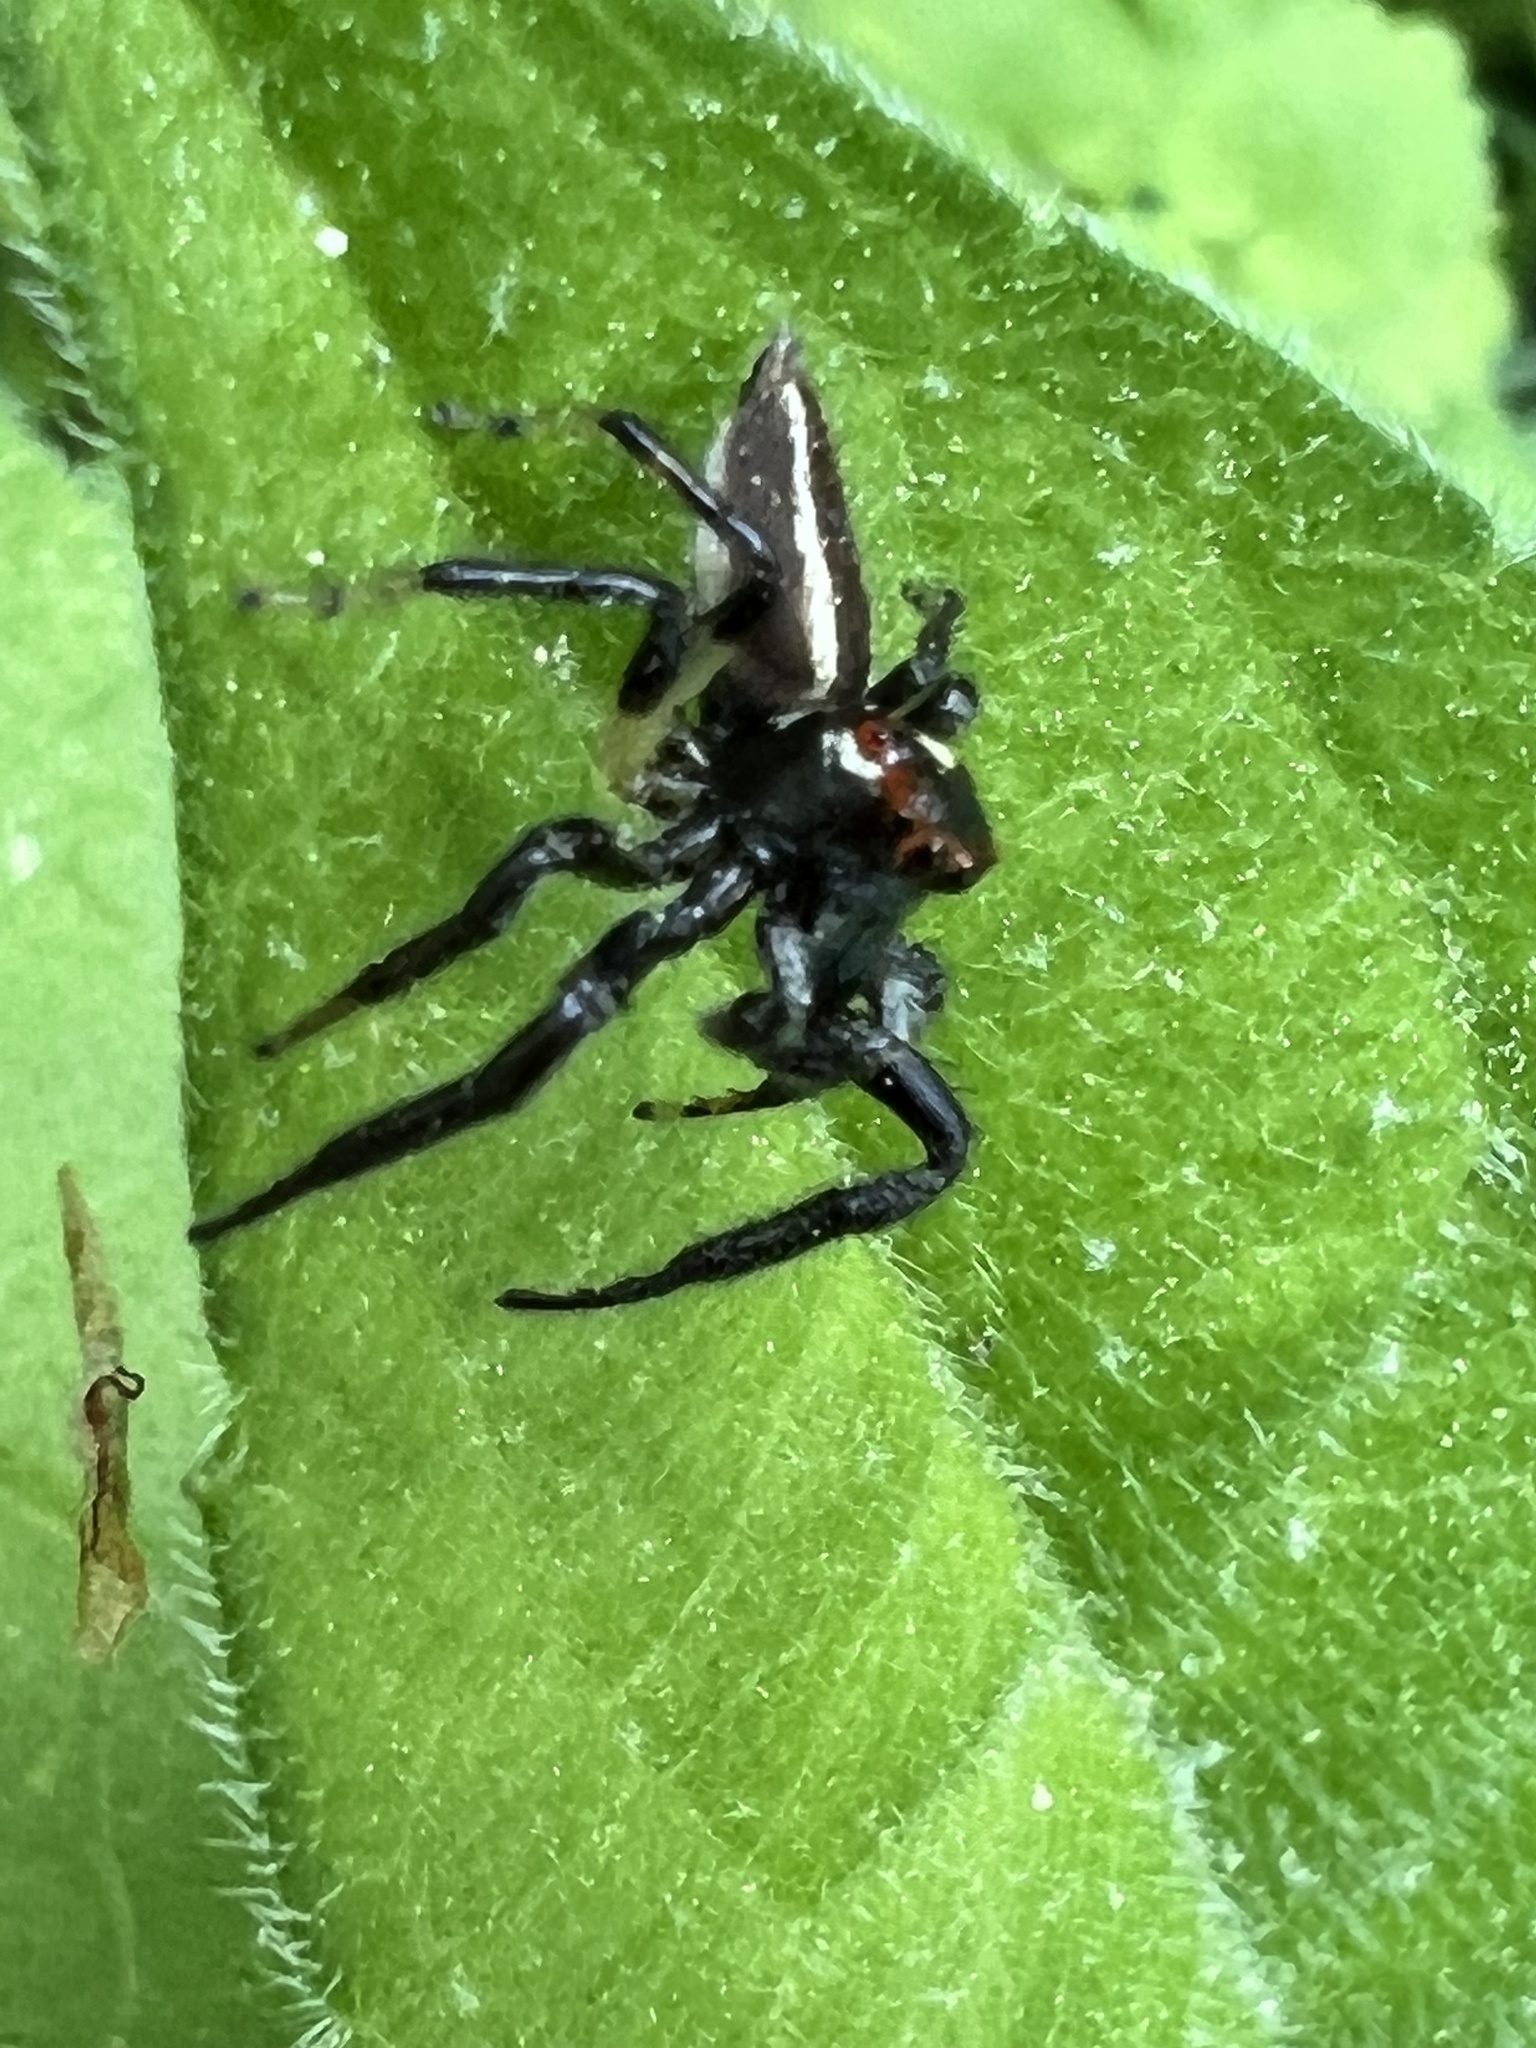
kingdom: Animalia
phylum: Arthropoda
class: Arachnida
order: Araneae
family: Salticidae
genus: Colonus
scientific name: Colonus sylvanus
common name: Jumping spiders
